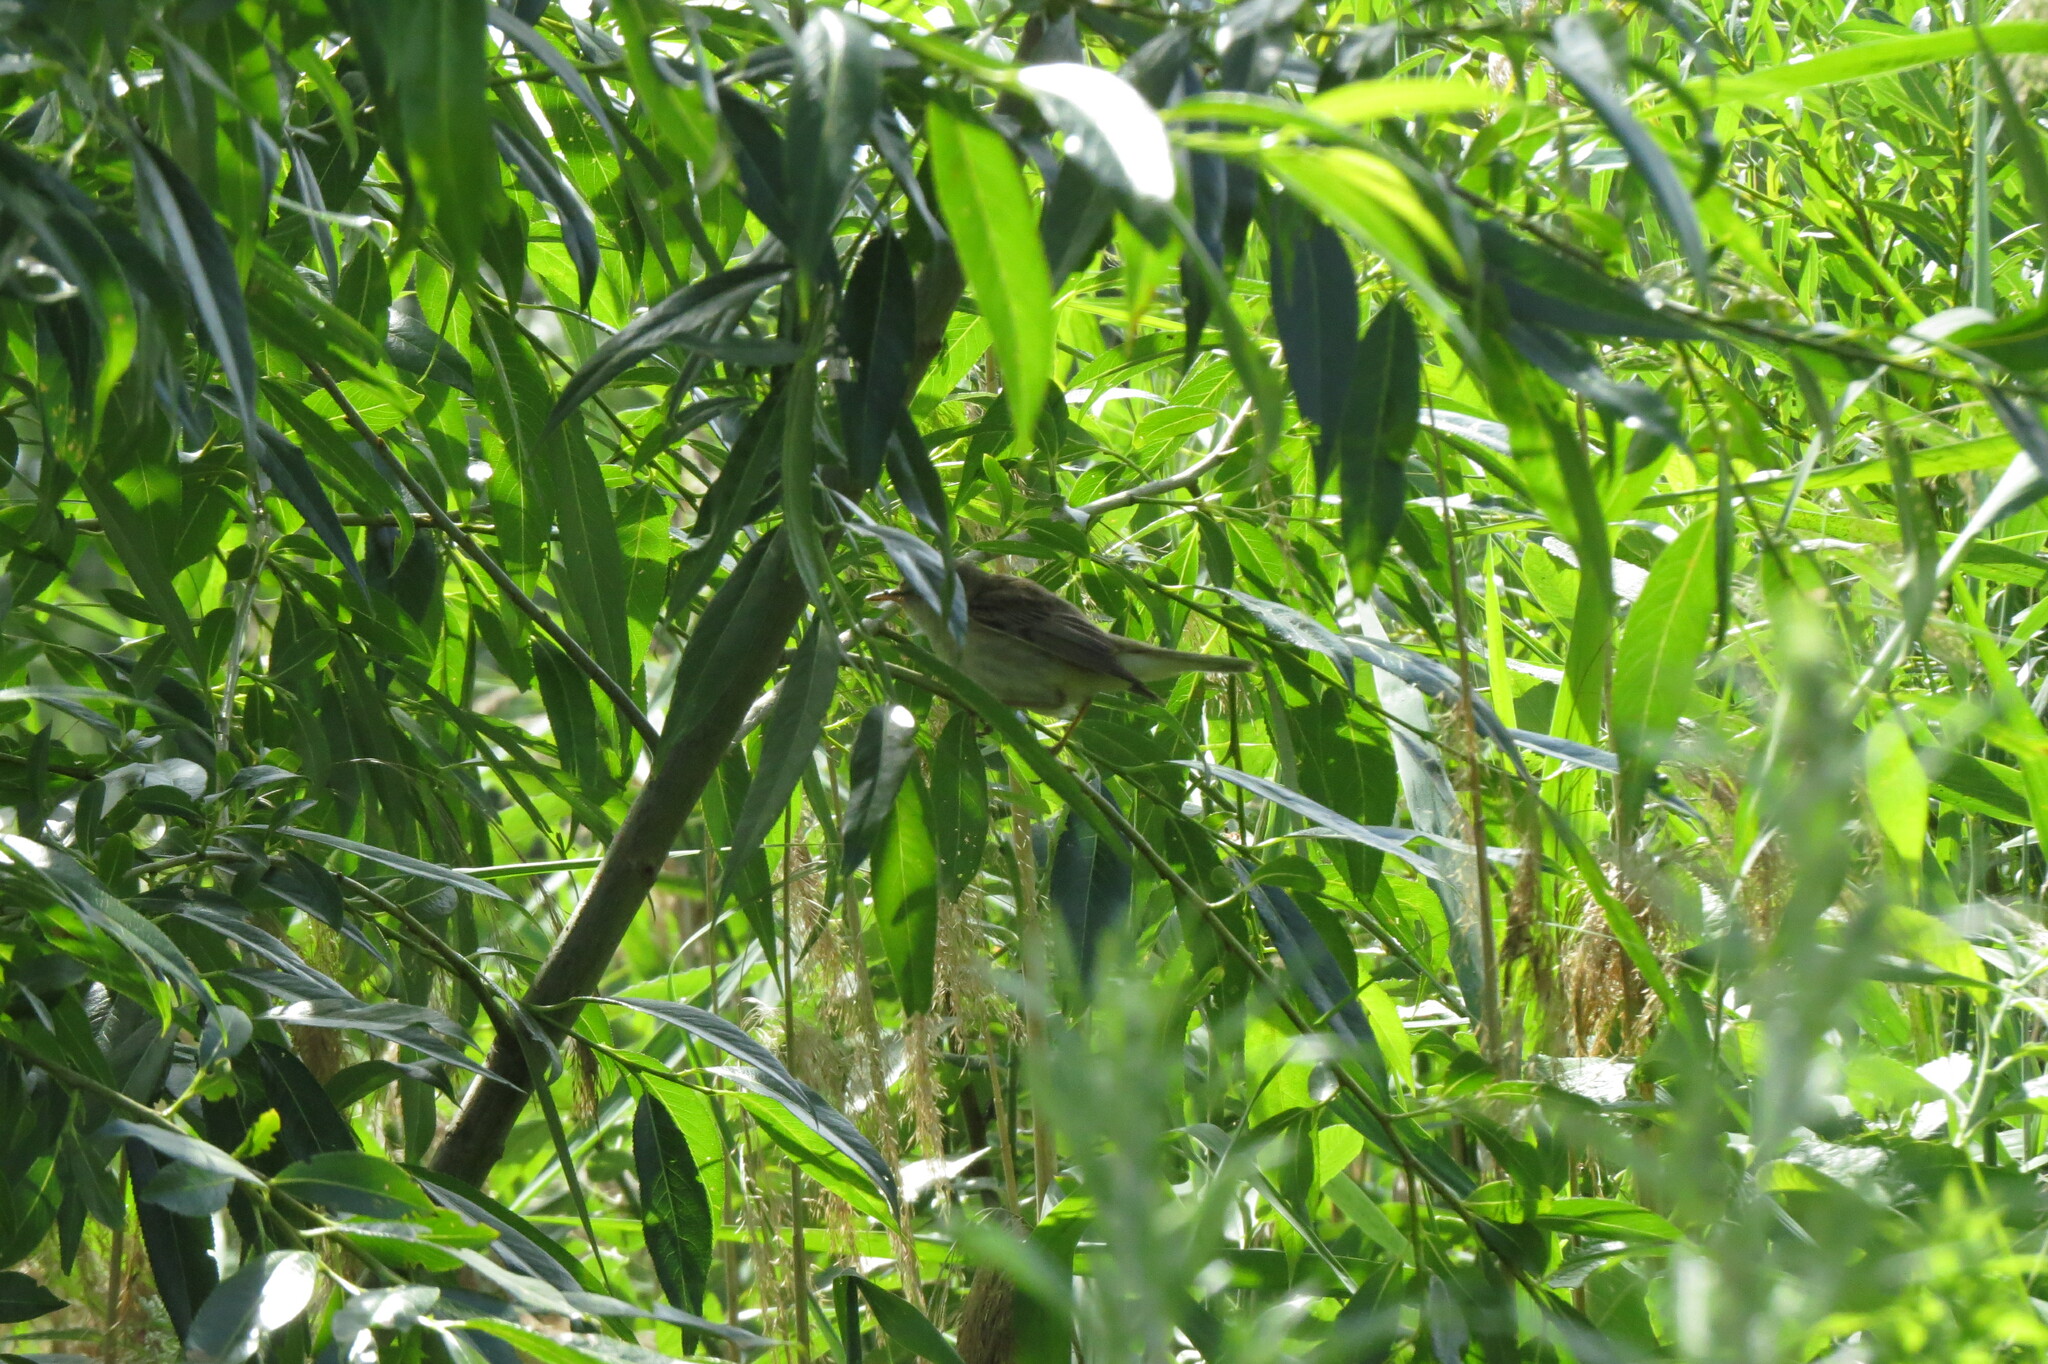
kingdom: Animalia
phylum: Chordata
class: Aves
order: Passeriformes
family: Acrocephalidae
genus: Acrocephalus
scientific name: Acrocephalus schoenobaenus
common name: Sedge warbler
